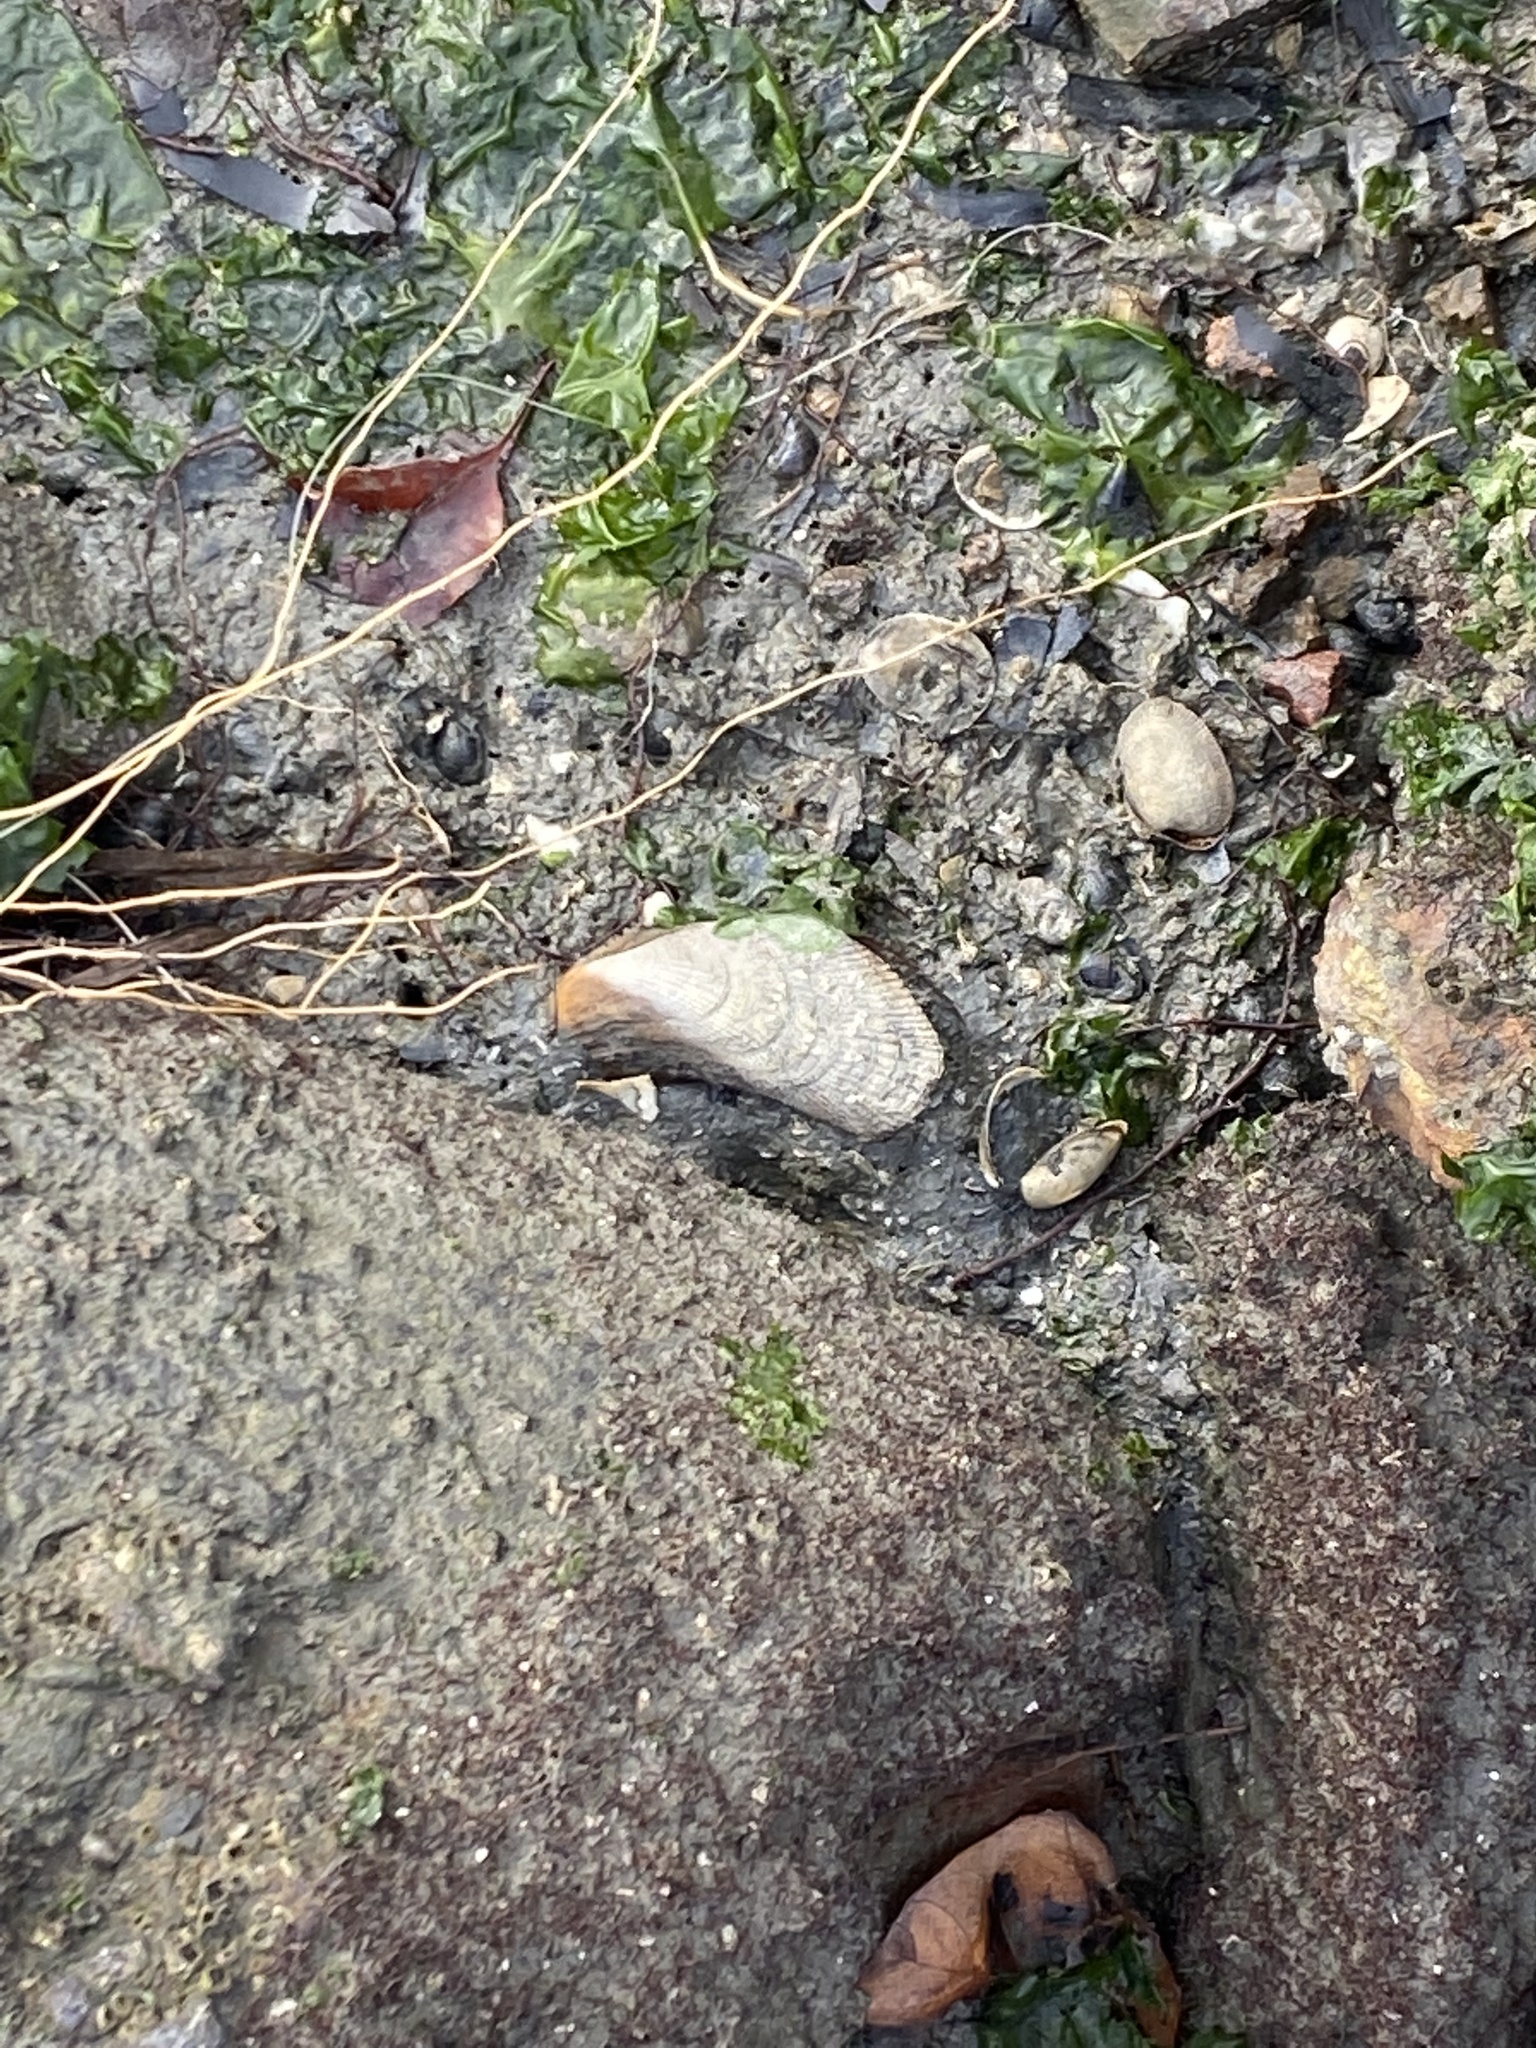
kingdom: Animalia
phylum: Mollusca
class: Bivalvia
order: Mytilida
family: Mytilidae
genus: Geukensia
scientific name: Geukensia demissa
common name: Ribbed mussel
